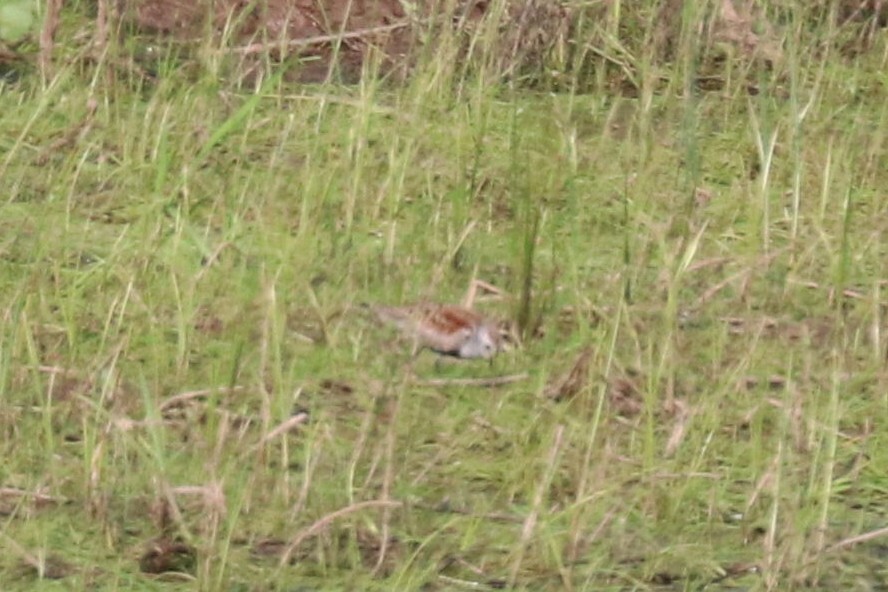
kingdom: Animalia
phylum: Chordata
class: Aves
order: Charadriiformes
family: Scolopacidae
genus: Calidris
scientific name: Calidris alpina
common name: Dunlin
